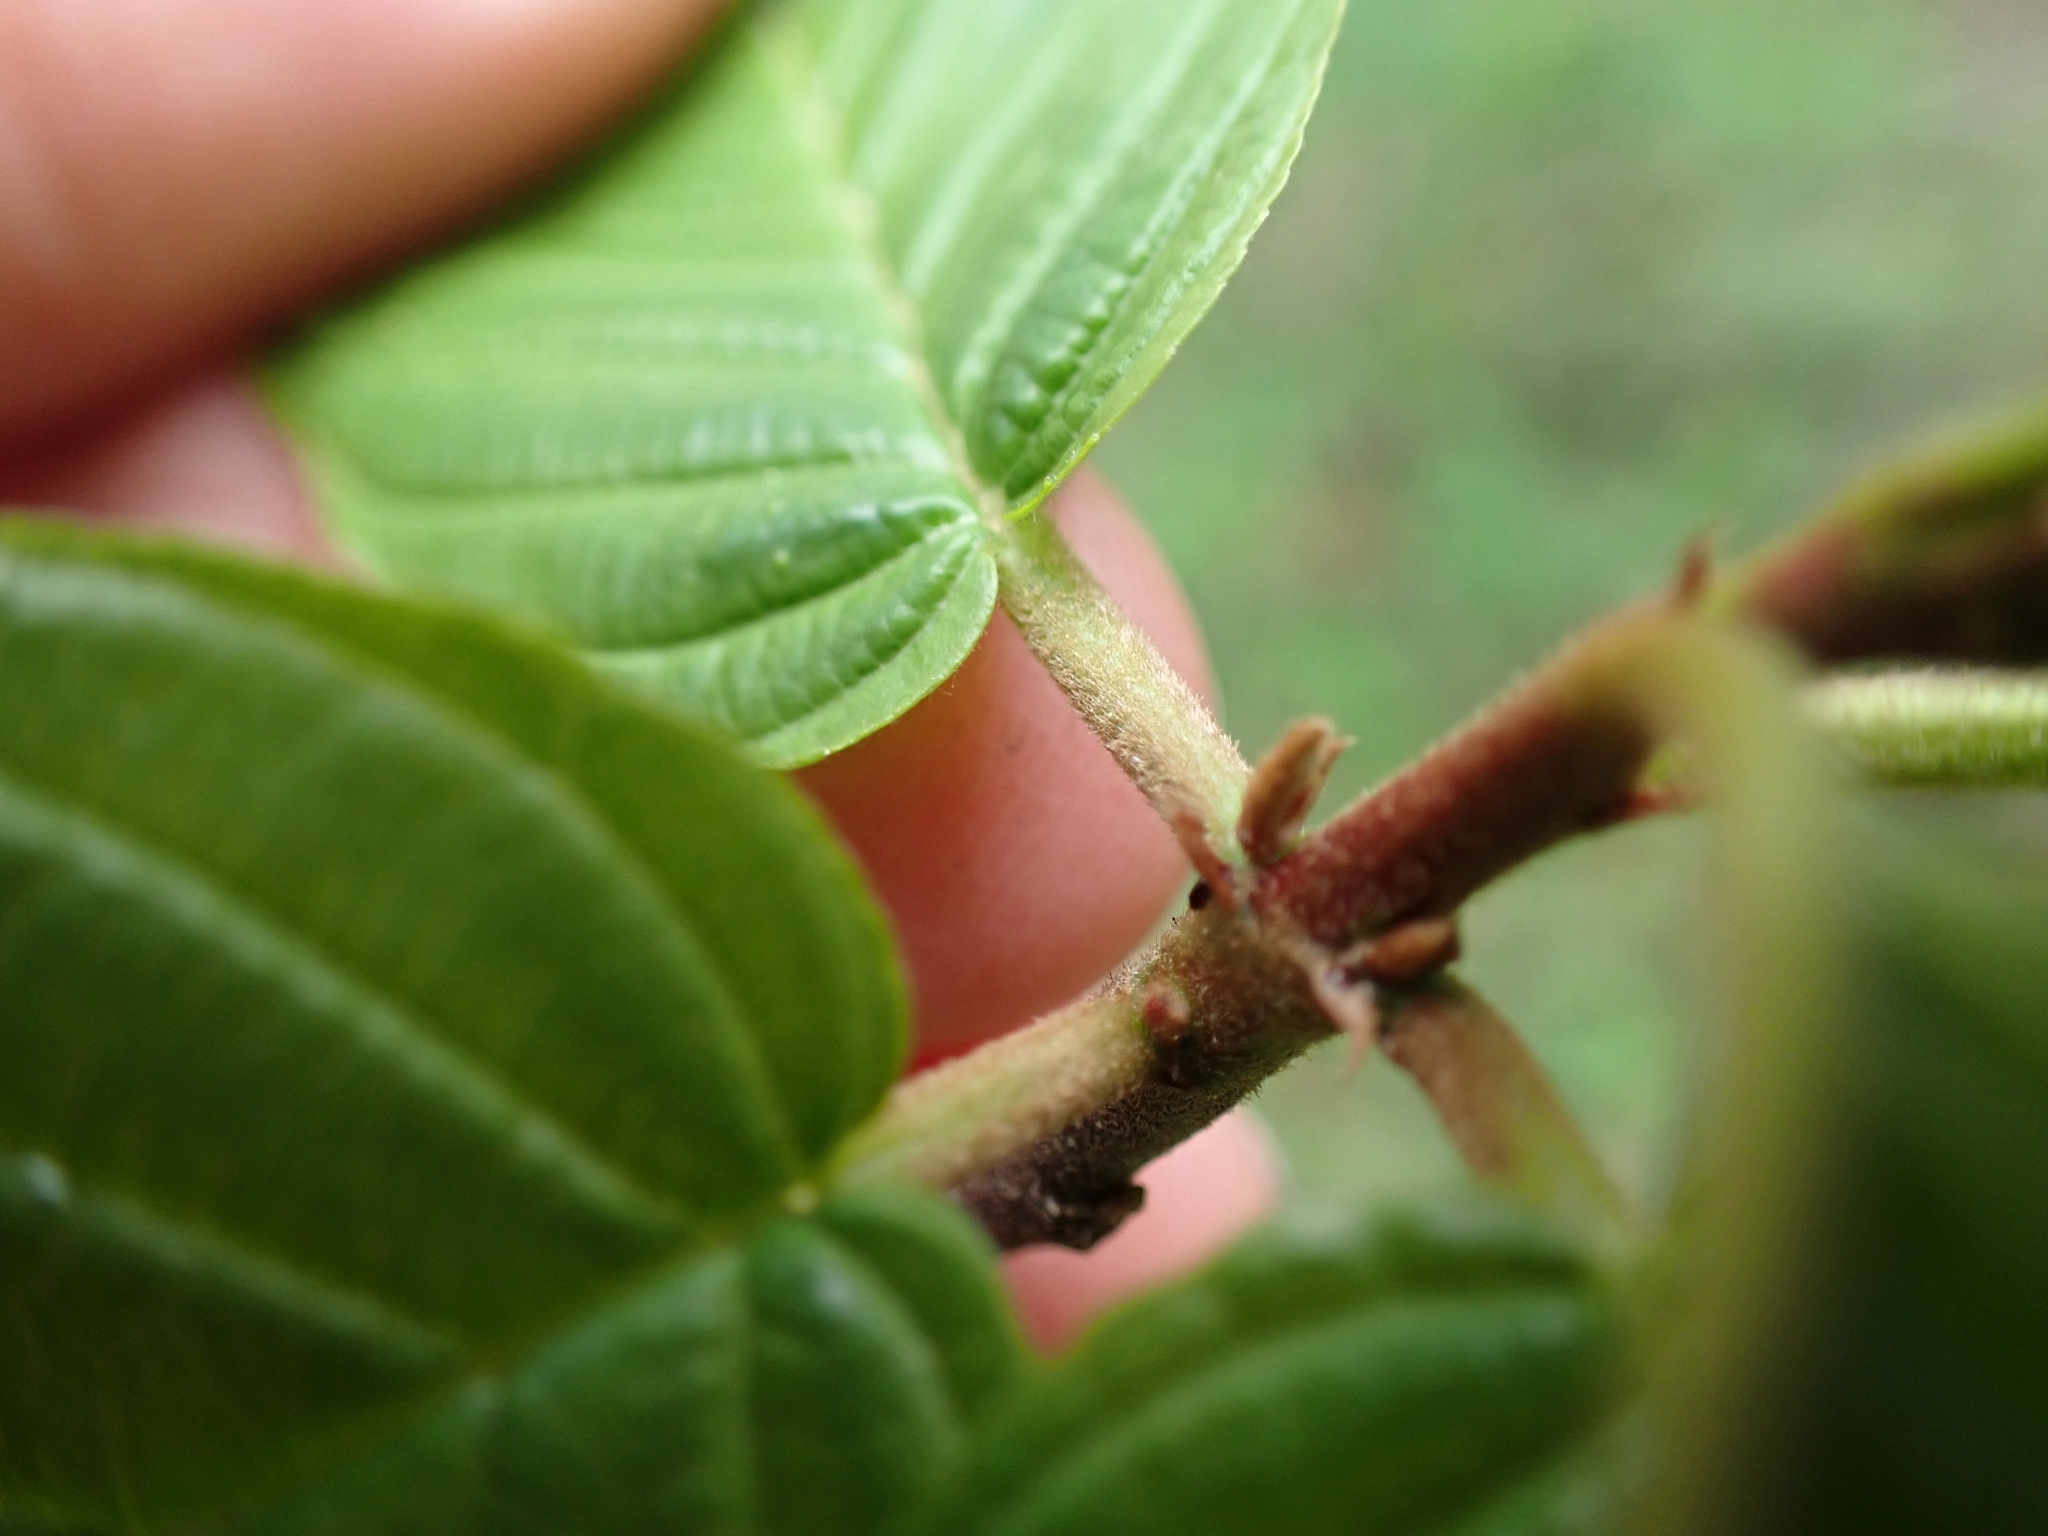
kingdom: Plantae
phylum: Tracheophyta
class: Magnoliopsida
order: Rosales
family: Rhamnaceae
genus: Frangula
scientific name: Frangula purshiana
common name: Cascara buckthorn
